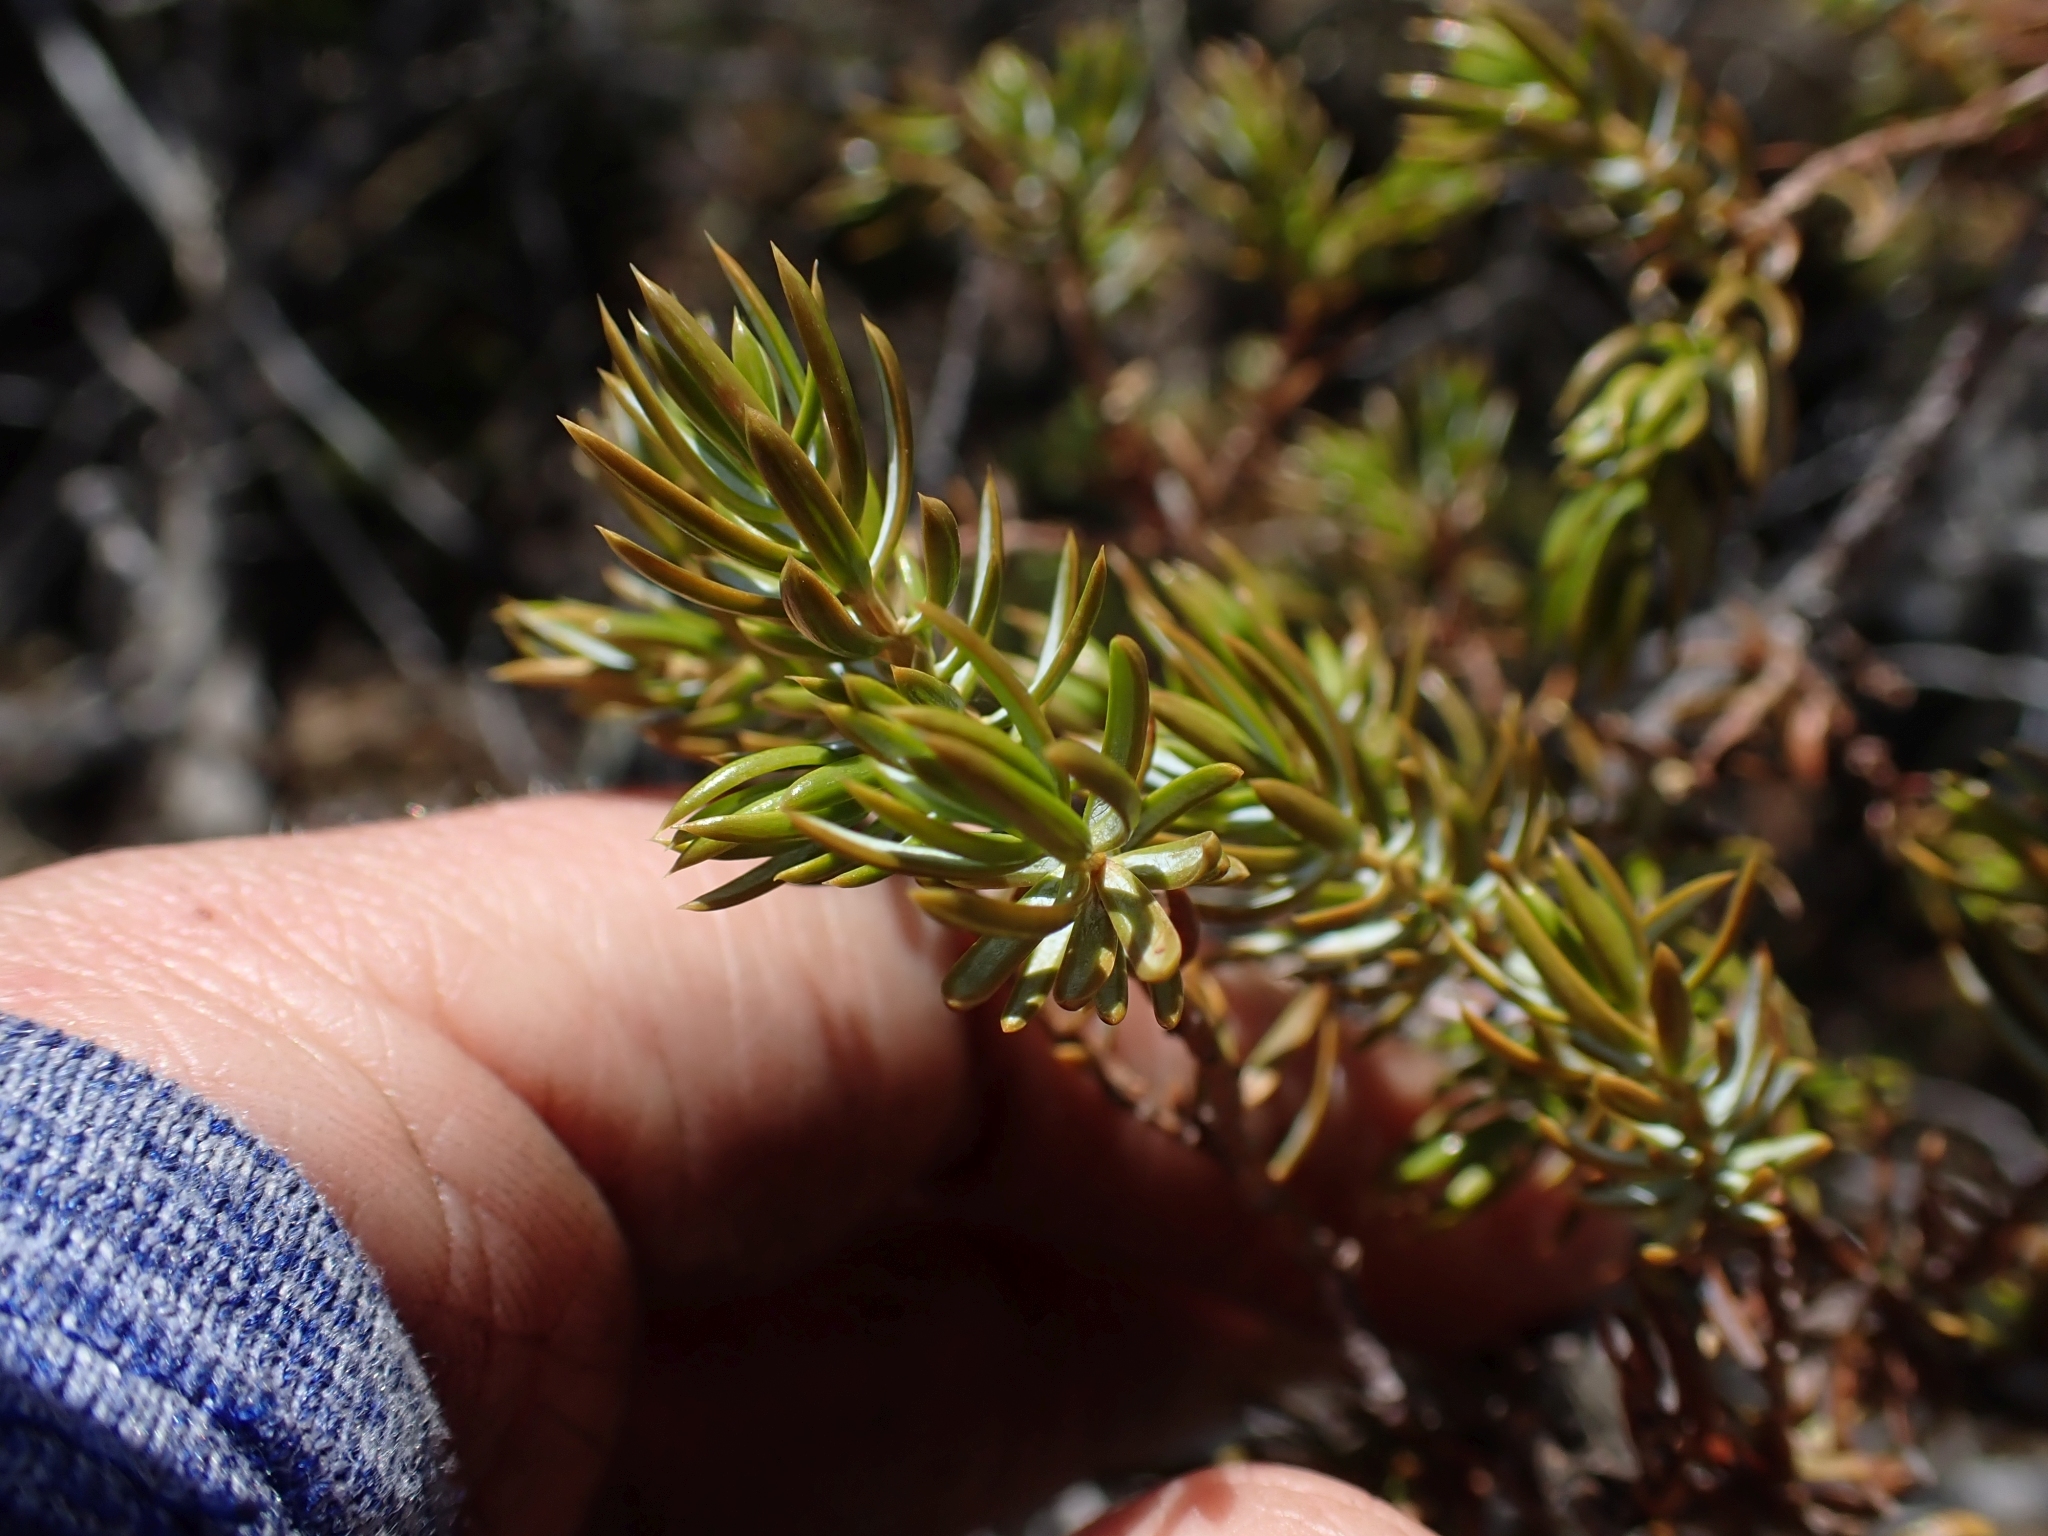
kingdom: Plantae
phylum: Tracheophyta
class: Pinopsida
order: Pinales
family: Cupressaceae
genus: Juniperus
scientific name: Juniperus communis
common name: Common juniper
